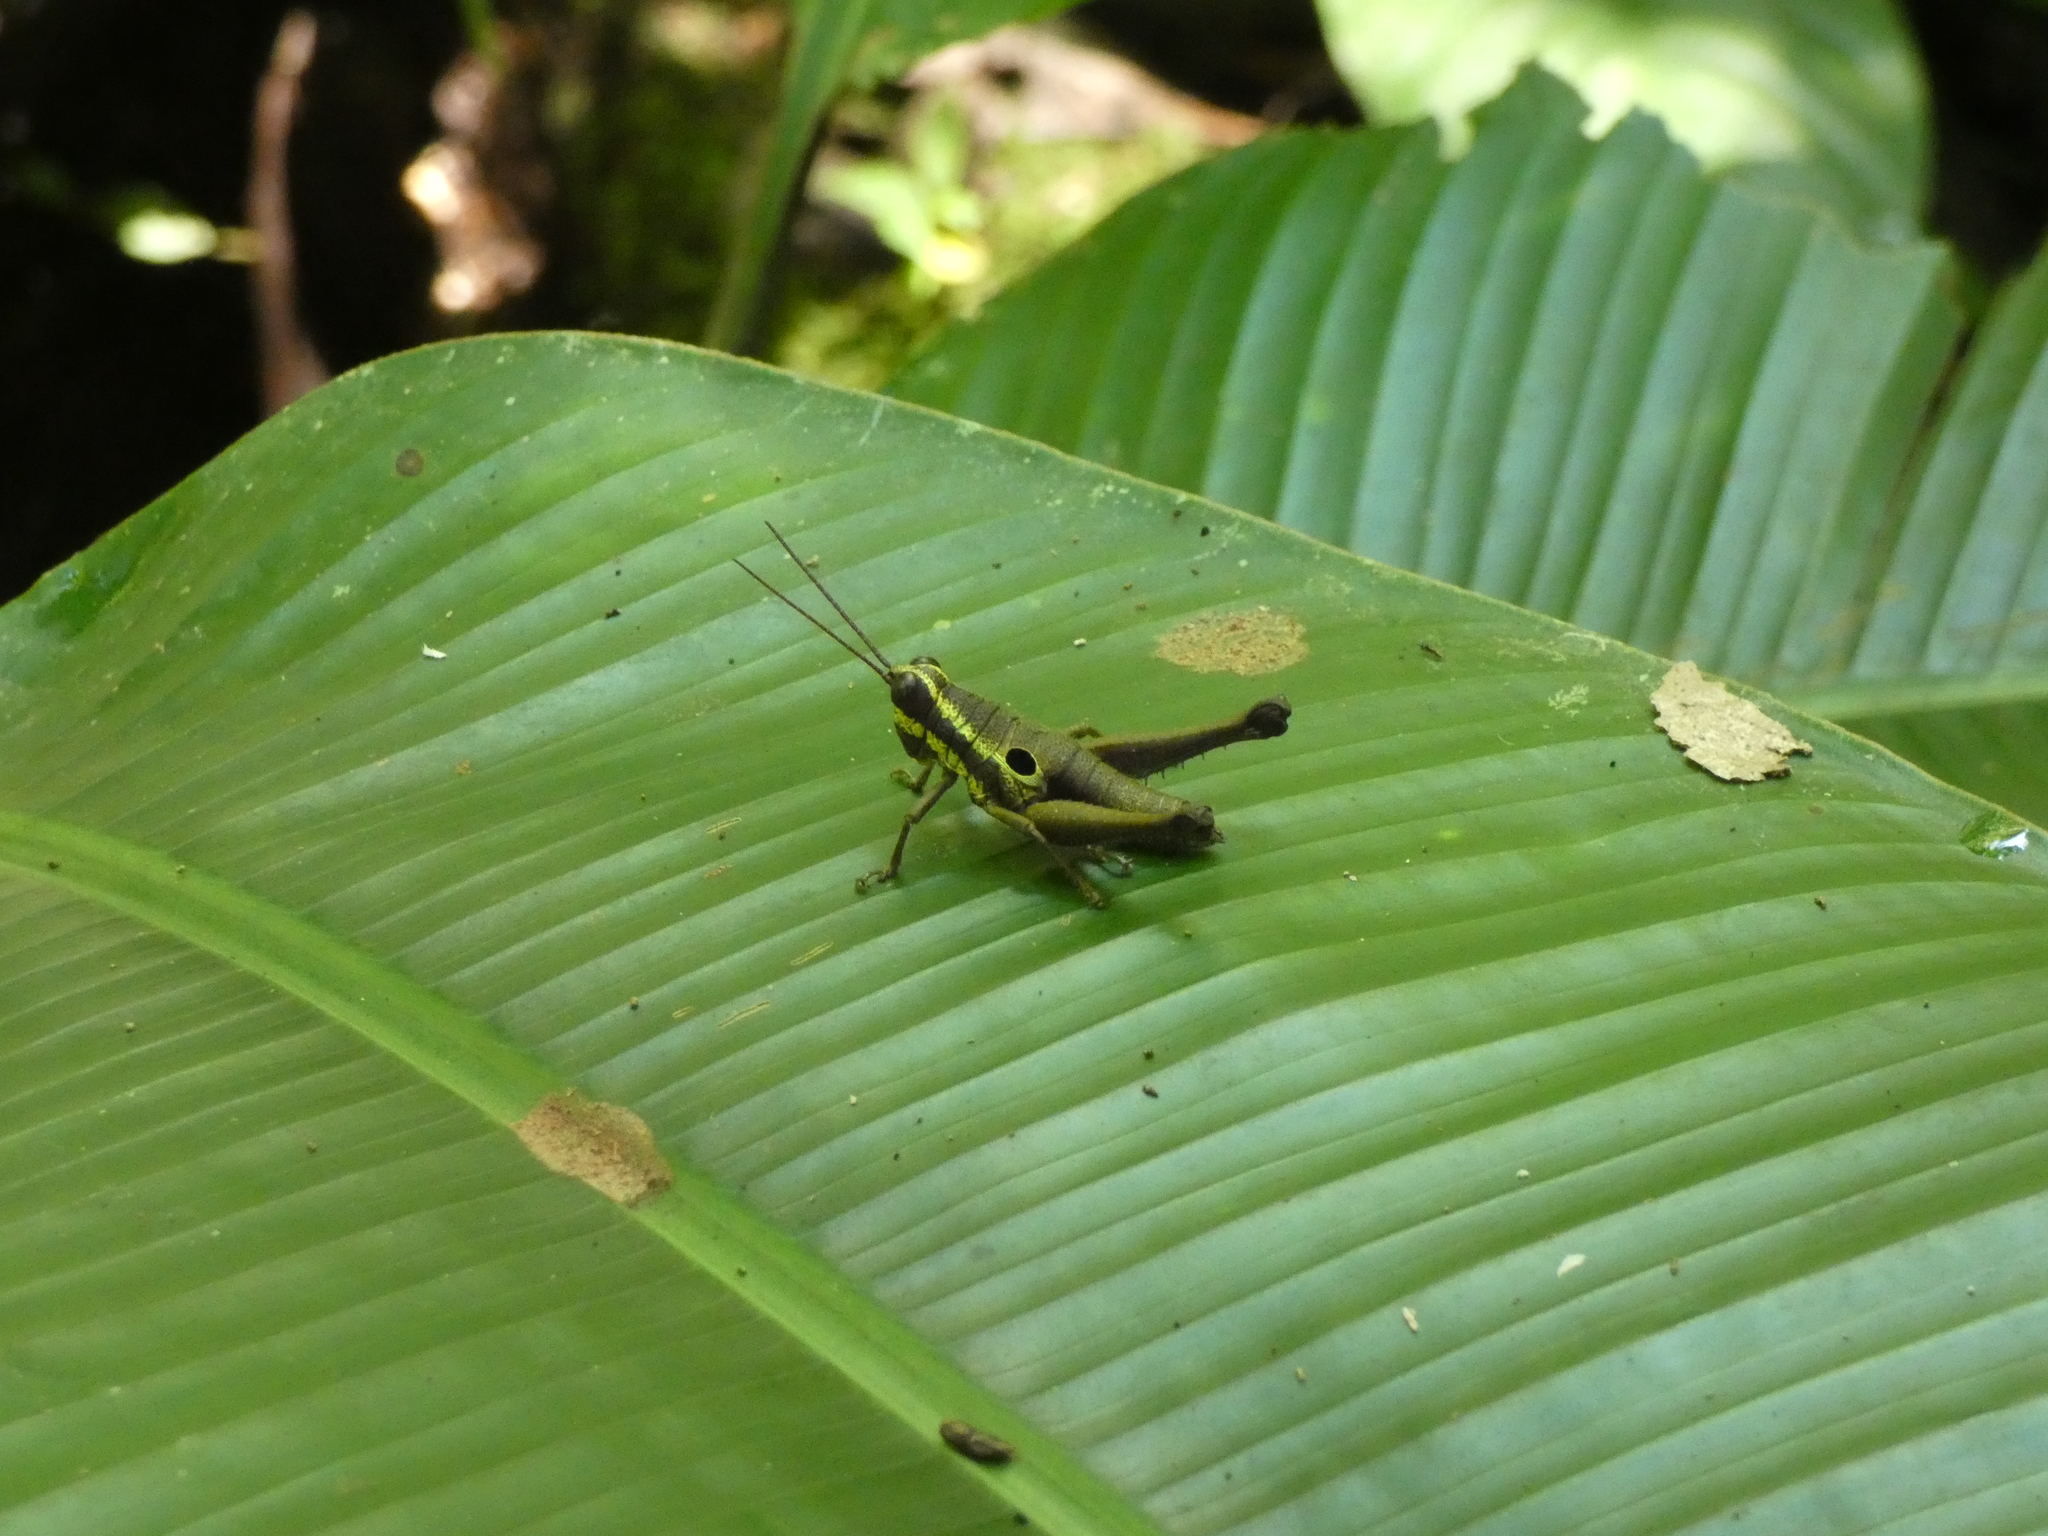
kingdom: Animalia
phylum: Arthropoda
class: Insecta
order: Orthoptera
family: Acrididae
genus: Ommatolampis
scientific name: Ommatolampis perspicillata
